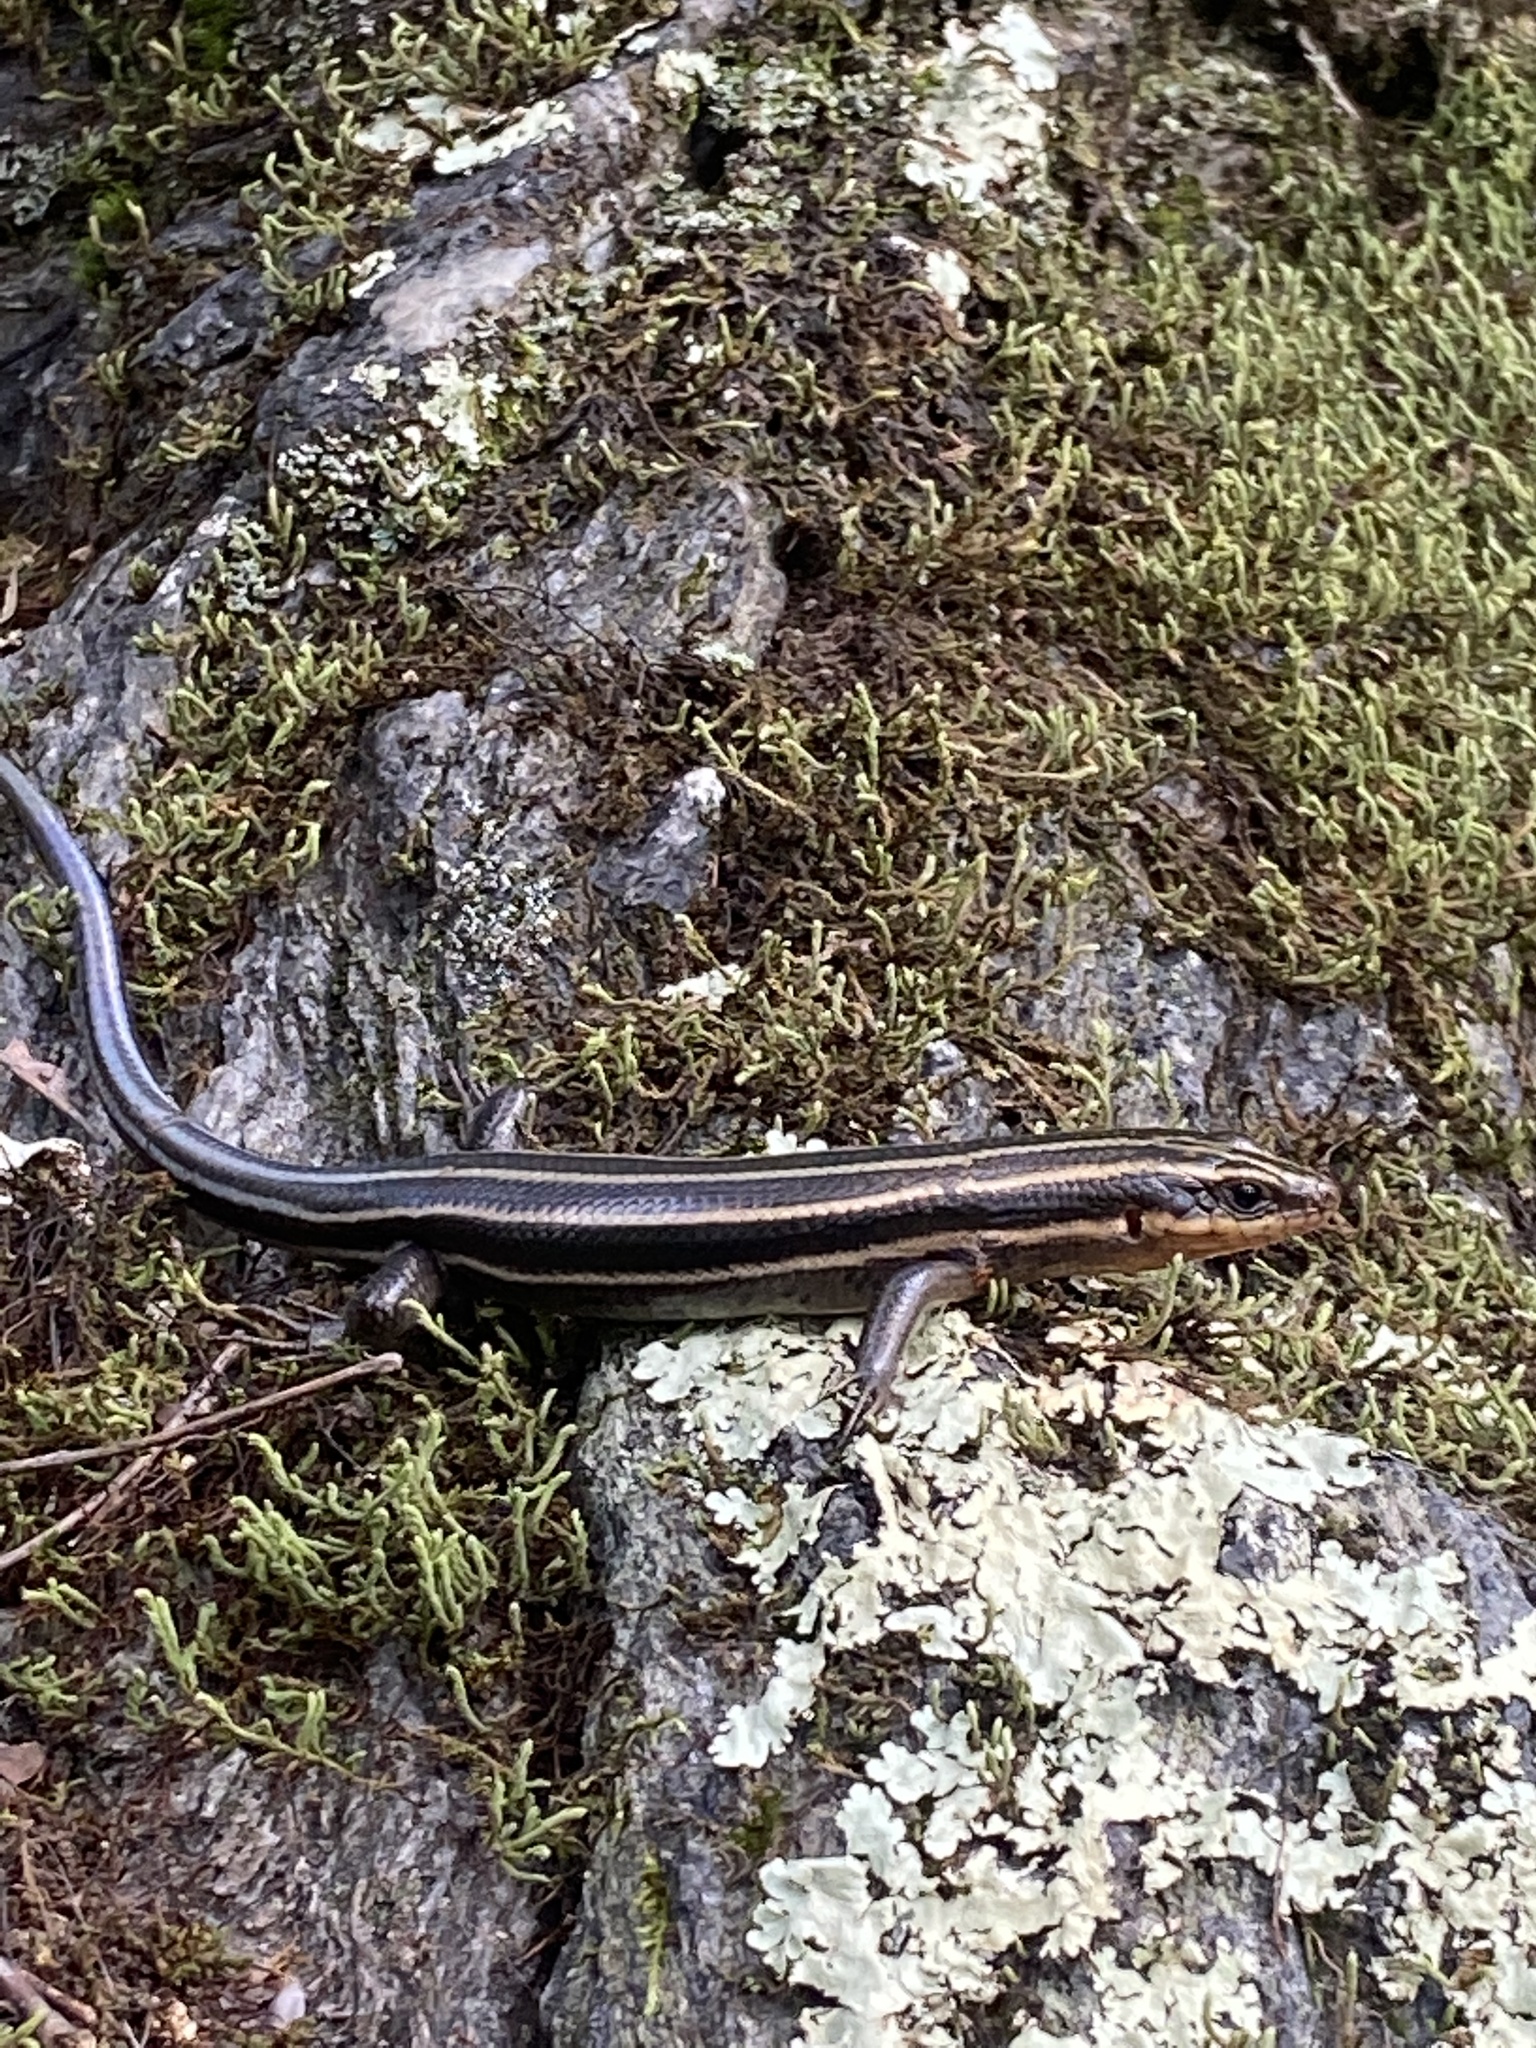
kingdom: Animalia
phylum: Chordata
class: Squamata
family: Scincidae
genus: Plestiodon
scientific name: Plestiodon fasciatus
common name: Five-lined skink
